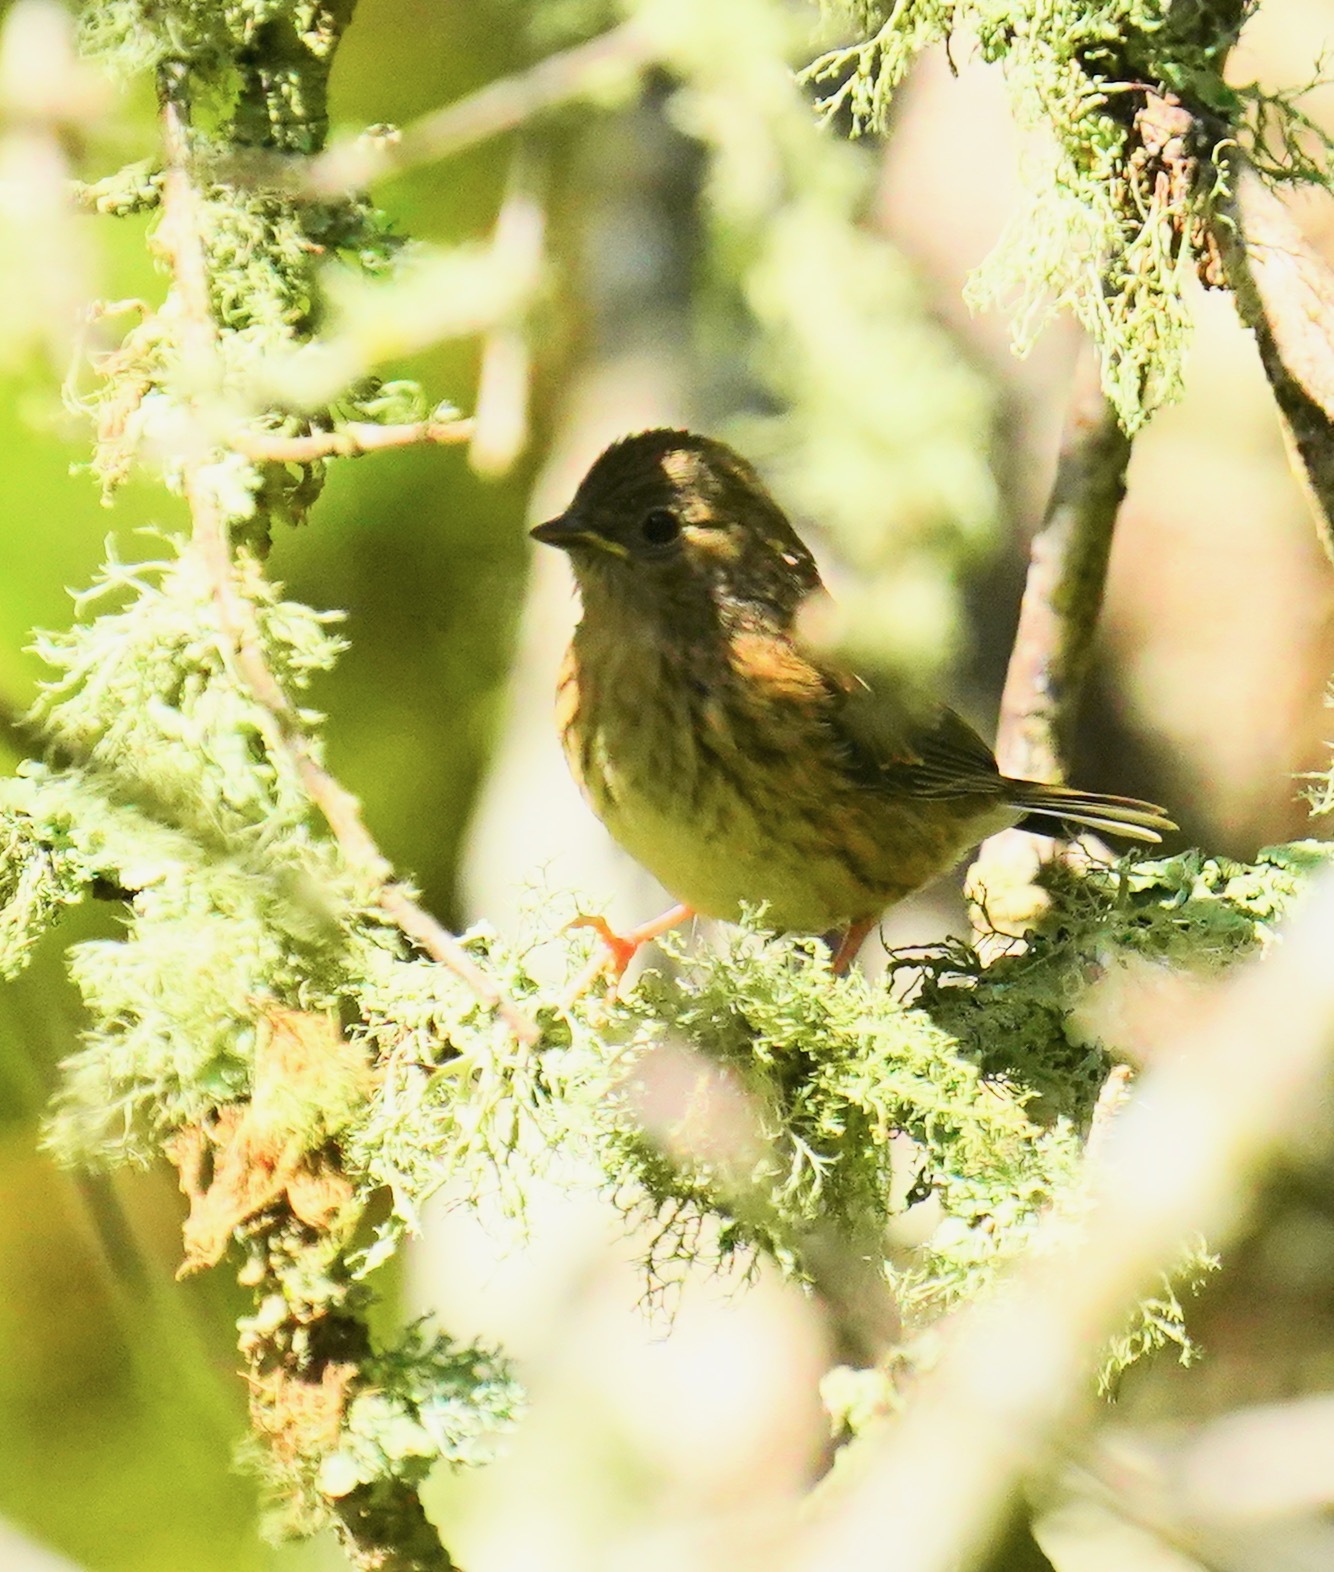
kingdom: Animalia
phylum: Chordata
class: Aves
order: Passeriformes
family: Passerellidae
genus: Zonotrichia
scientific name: Zonotrichia atricapilla
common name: Golden-crowned sparrow
